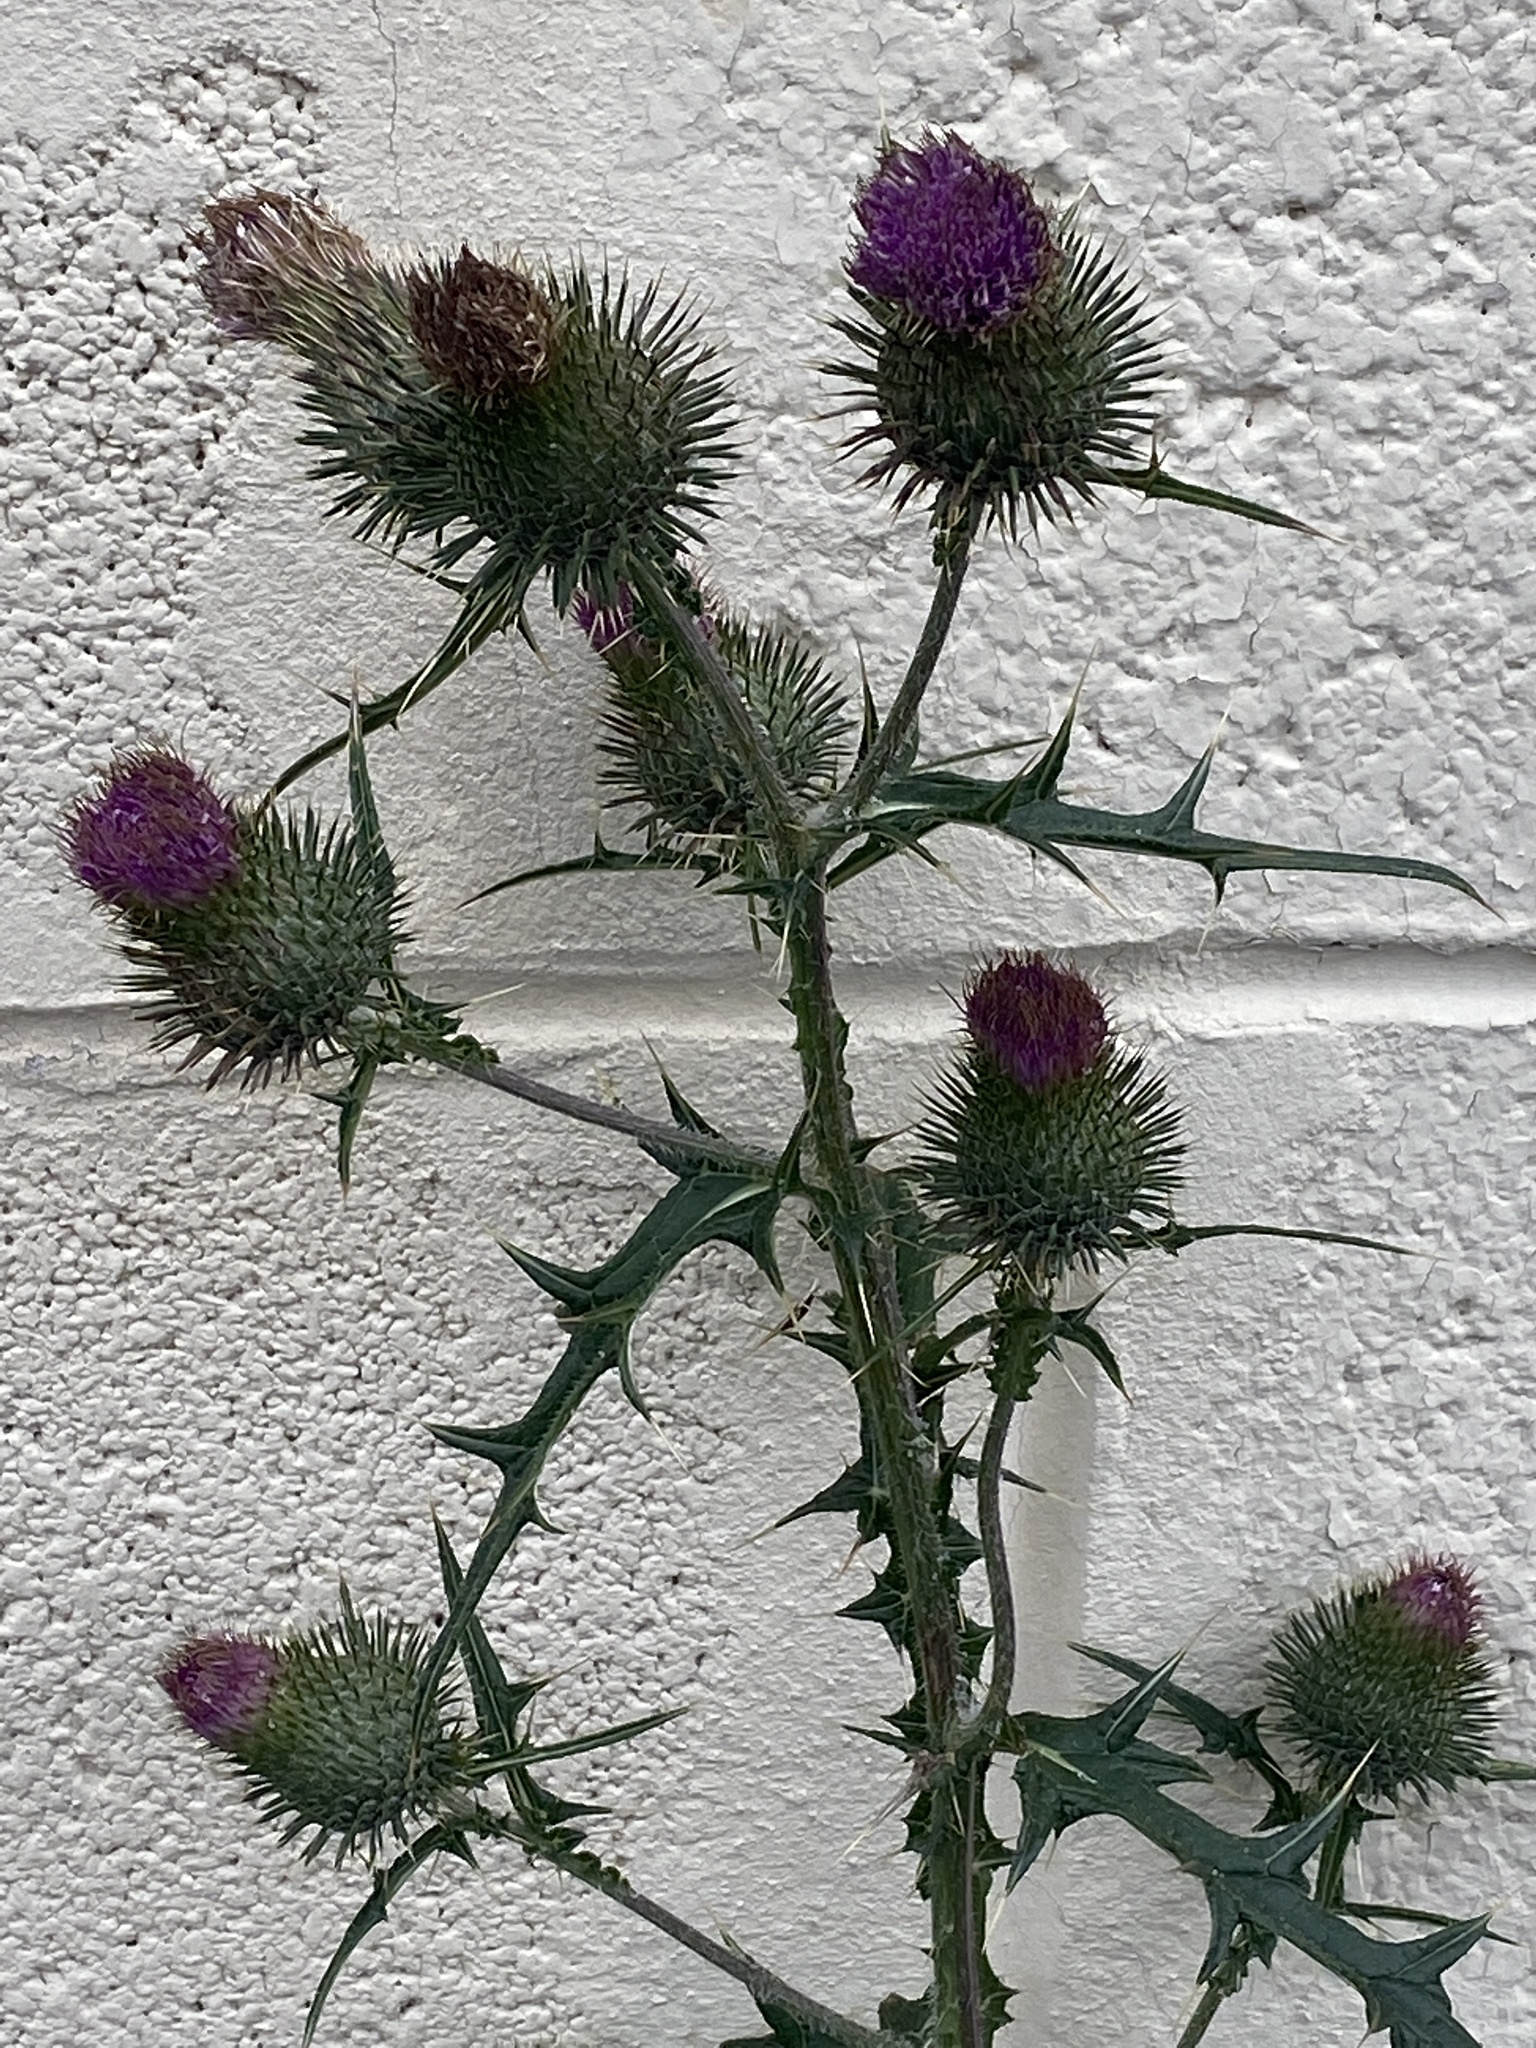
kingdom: Plantae
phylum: Tracheophyta
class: Magnoliopsida
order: Asterales
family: Asteraceae
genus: Cirsium
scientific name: Cirsium vulgare
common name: Bull thistle
